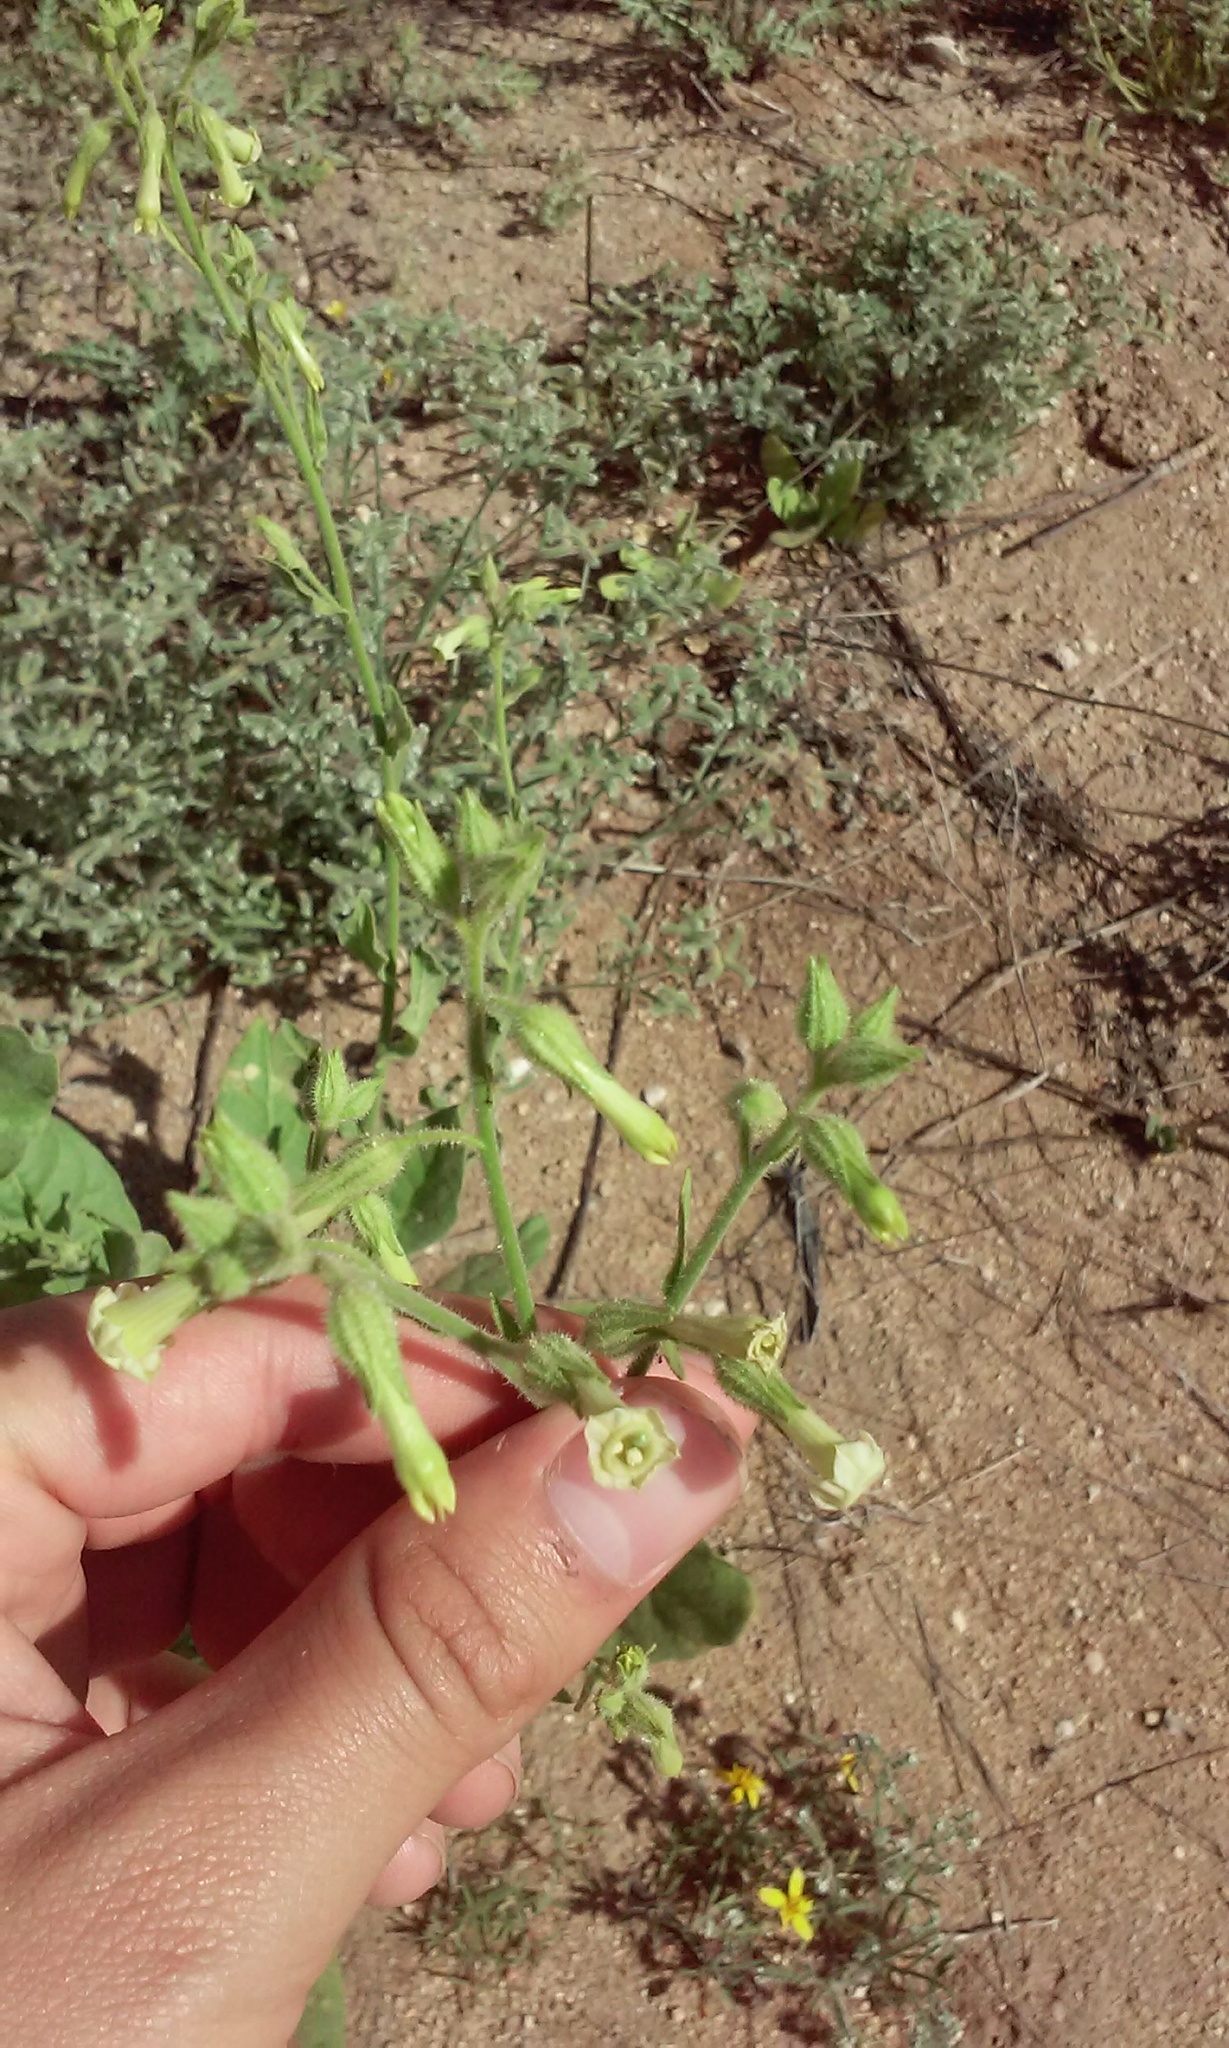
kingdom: Plantae
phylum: Tracheophyta
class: Magnoliopsida
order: Solanales
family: Solanaceae
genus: Nicotiana
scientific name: Nicotiana obtusifolia
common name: Desert tobacco
